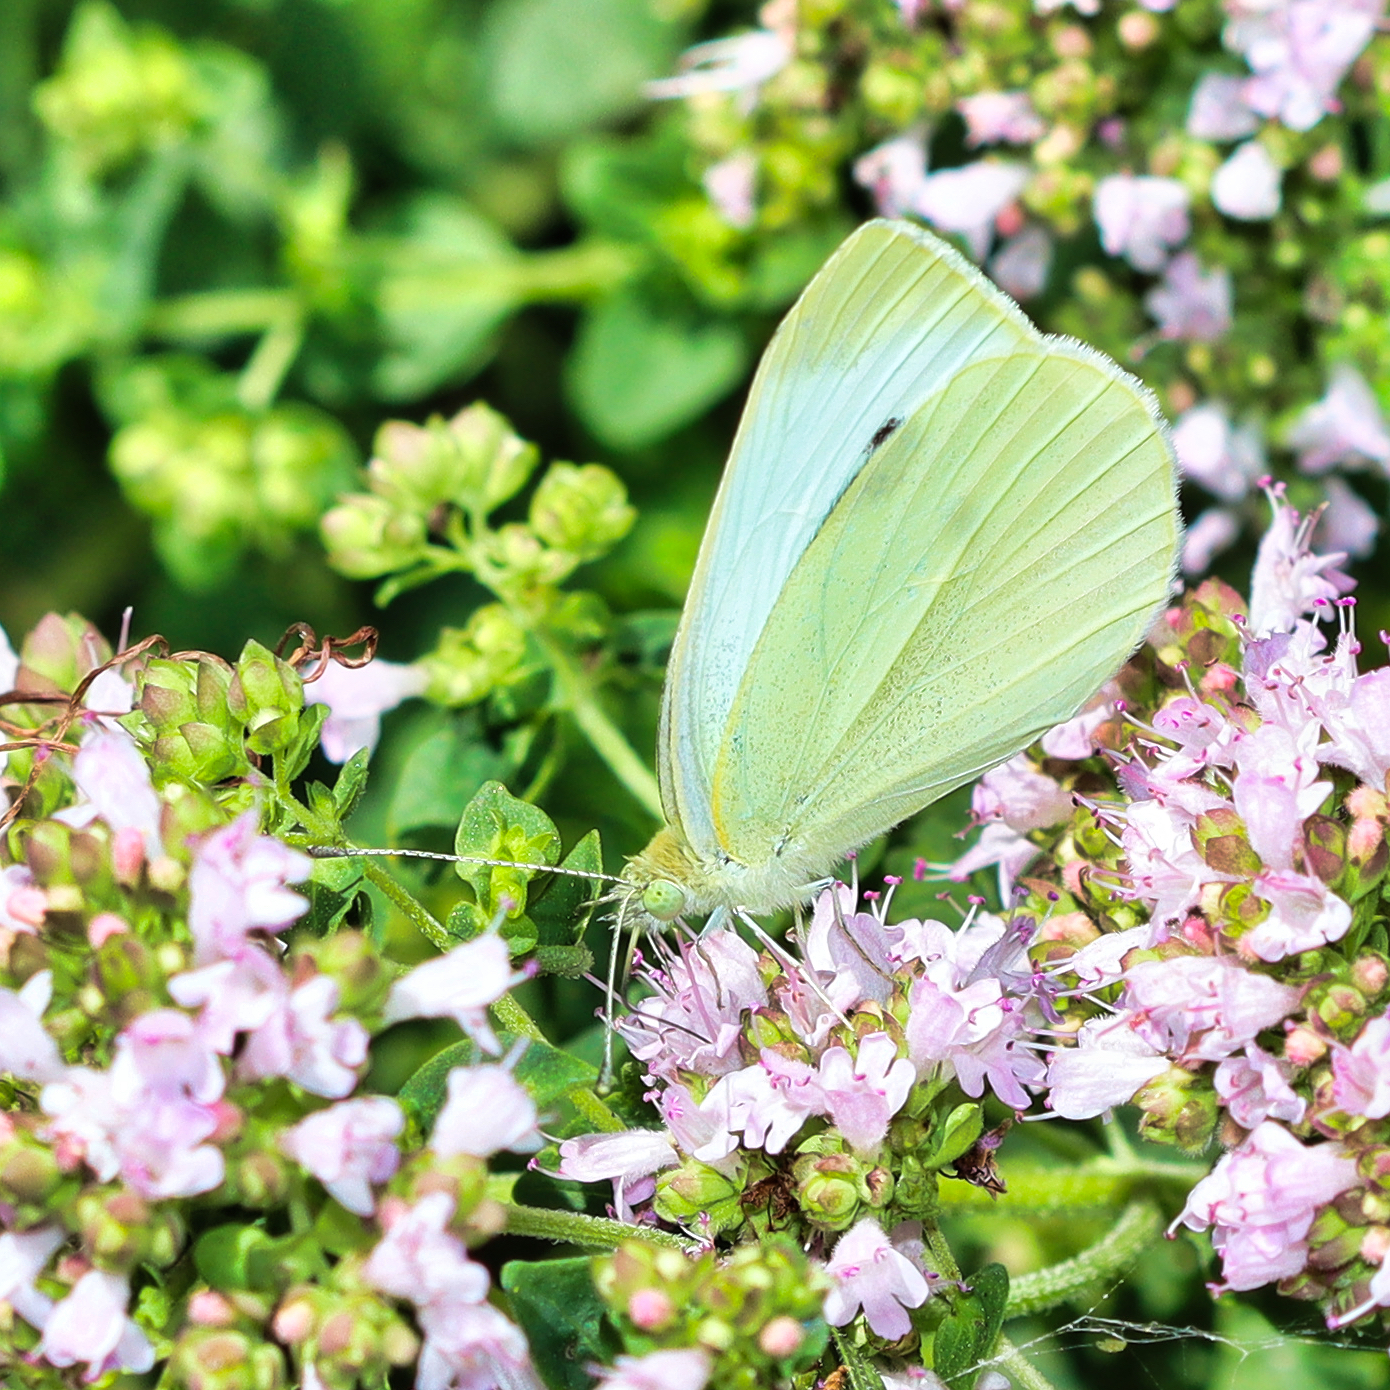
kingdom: Animalia
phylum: Arthropoda
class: Insecta
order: Lepidoptera
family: Pieridae
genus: Pieris
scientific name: Pieris rapae
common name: Small white
